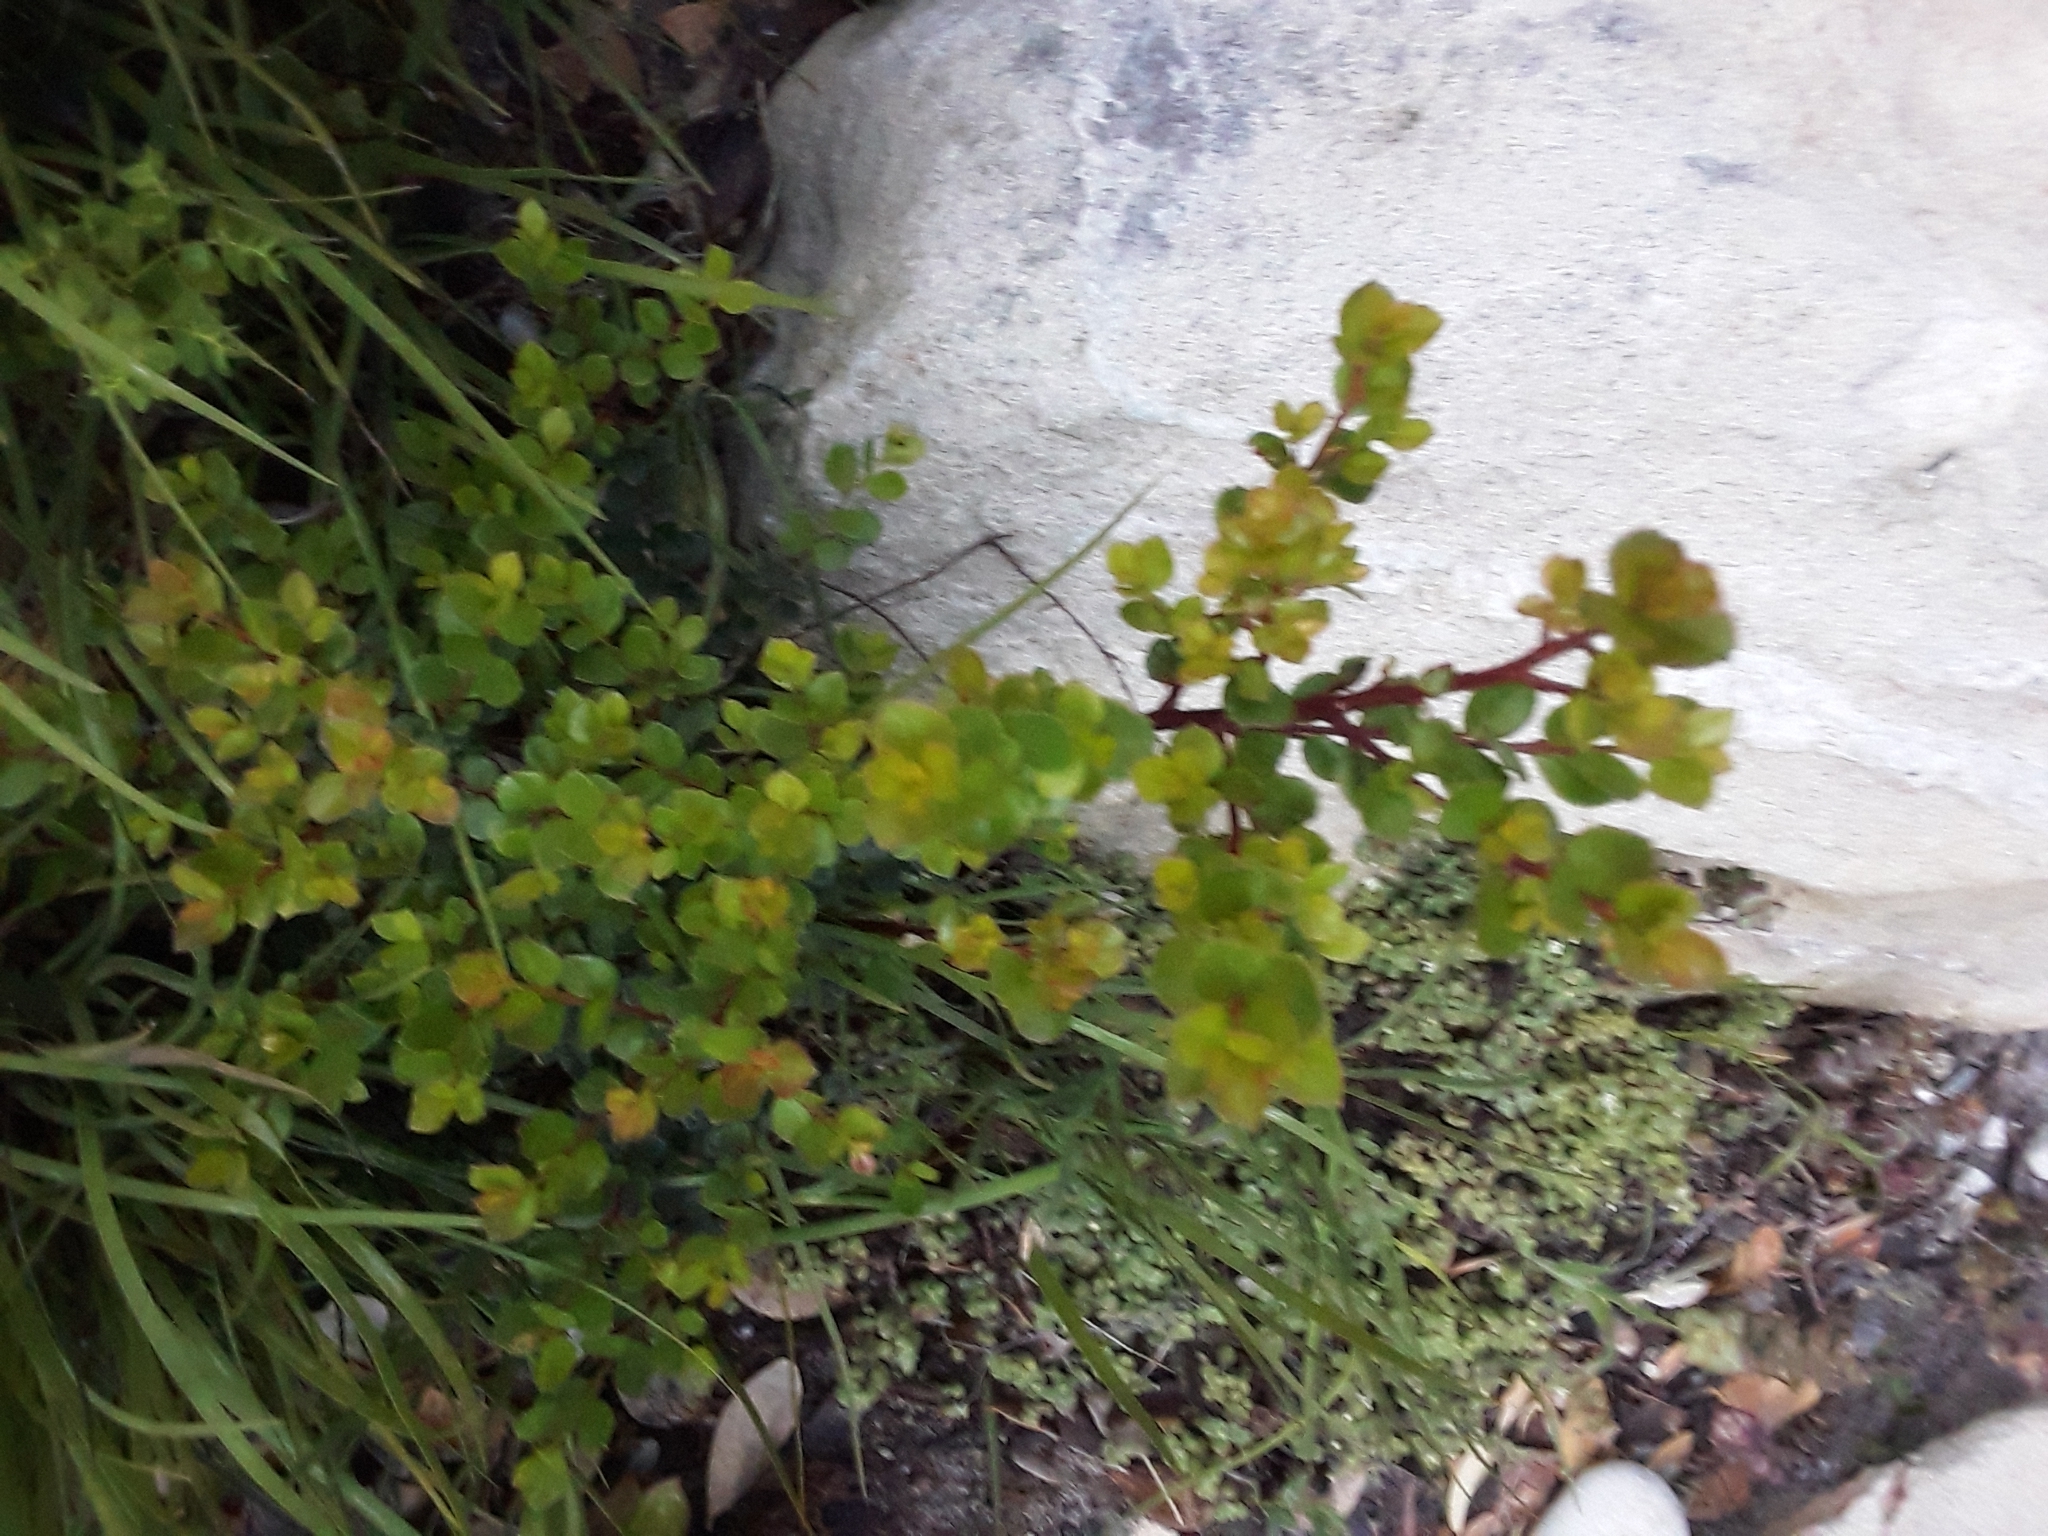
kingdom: Plantae
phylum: Tracheophyta
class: Magnoliopsida
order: Ericales
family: Primulaceae
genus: Myrsine
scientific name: Myrsine africana
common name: African-boxwood
